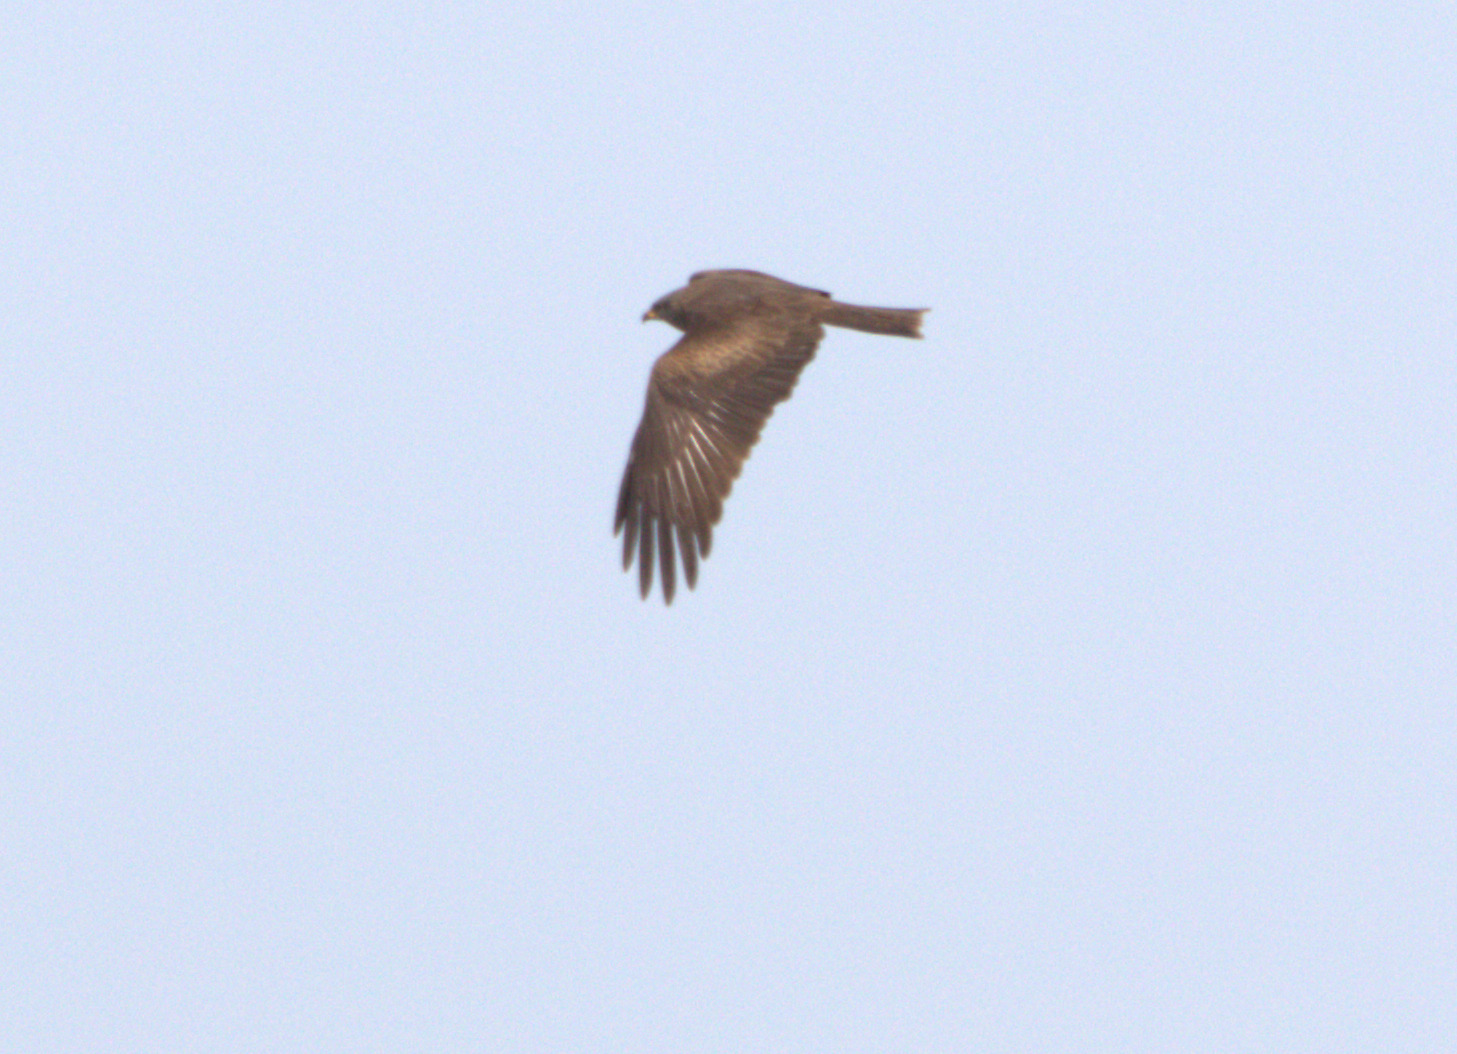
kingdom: Animalia
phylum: Chordata
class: Aves
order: Accipitriformes
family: Accipitridae
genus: Milvus
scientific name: Milvus migrans
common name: Black kite
